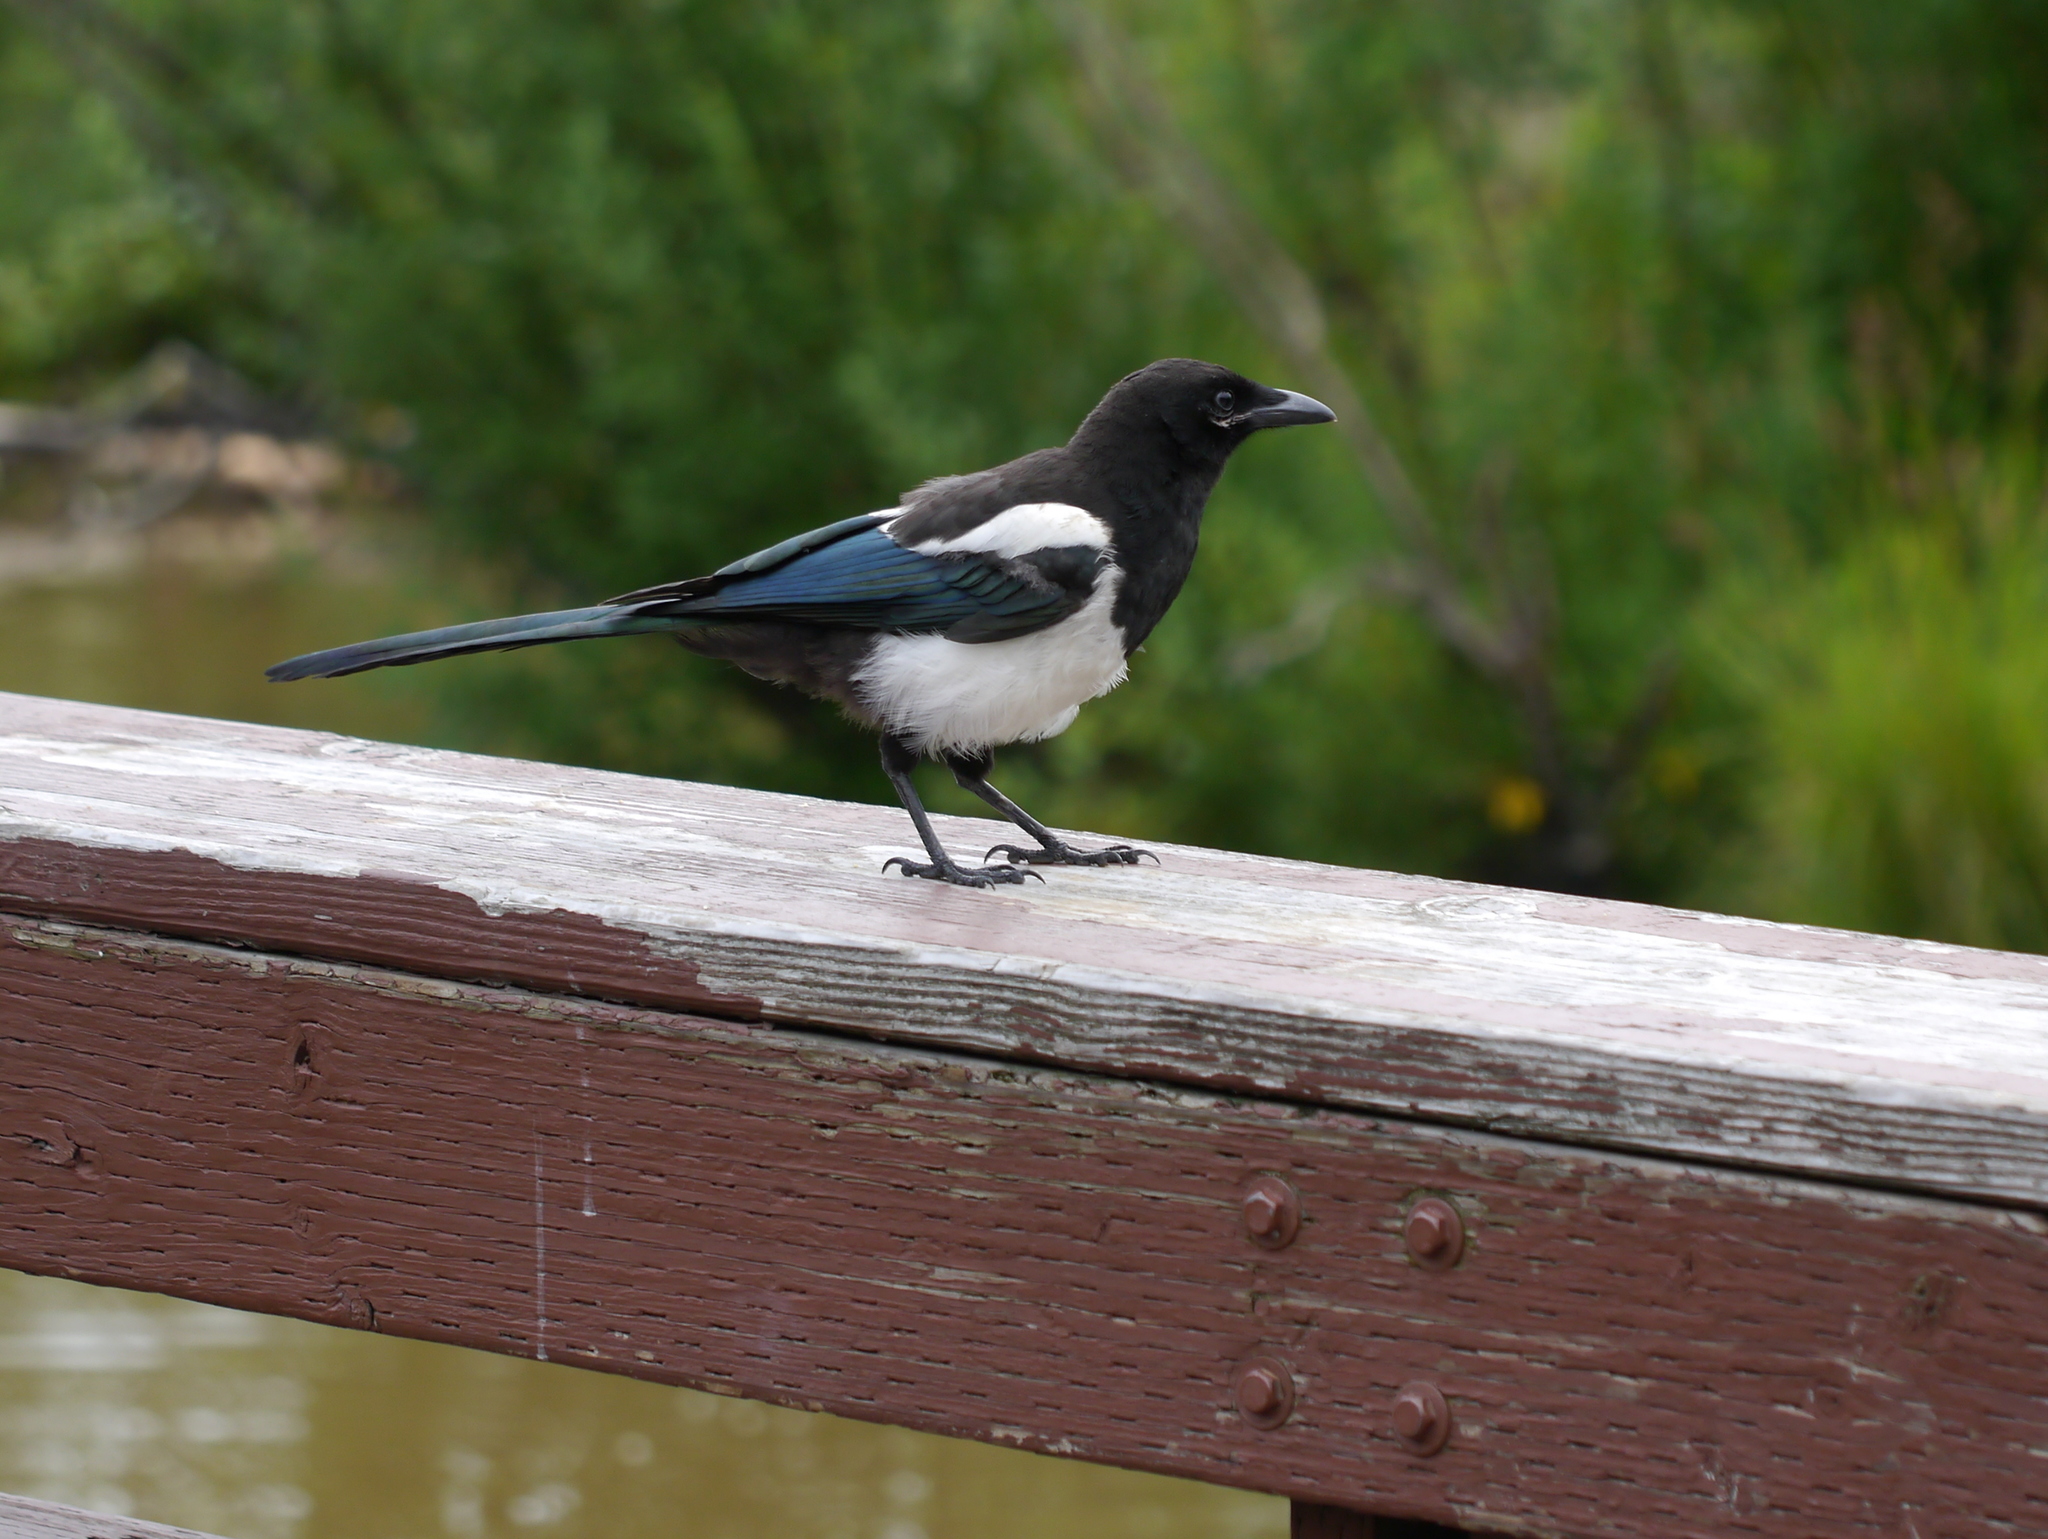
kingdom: Animalia
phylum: Chordata
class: Aves
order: Passeriformes
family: Corvidae
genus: Pica
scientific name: Pica hudsonia
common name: Black-billed magpie
